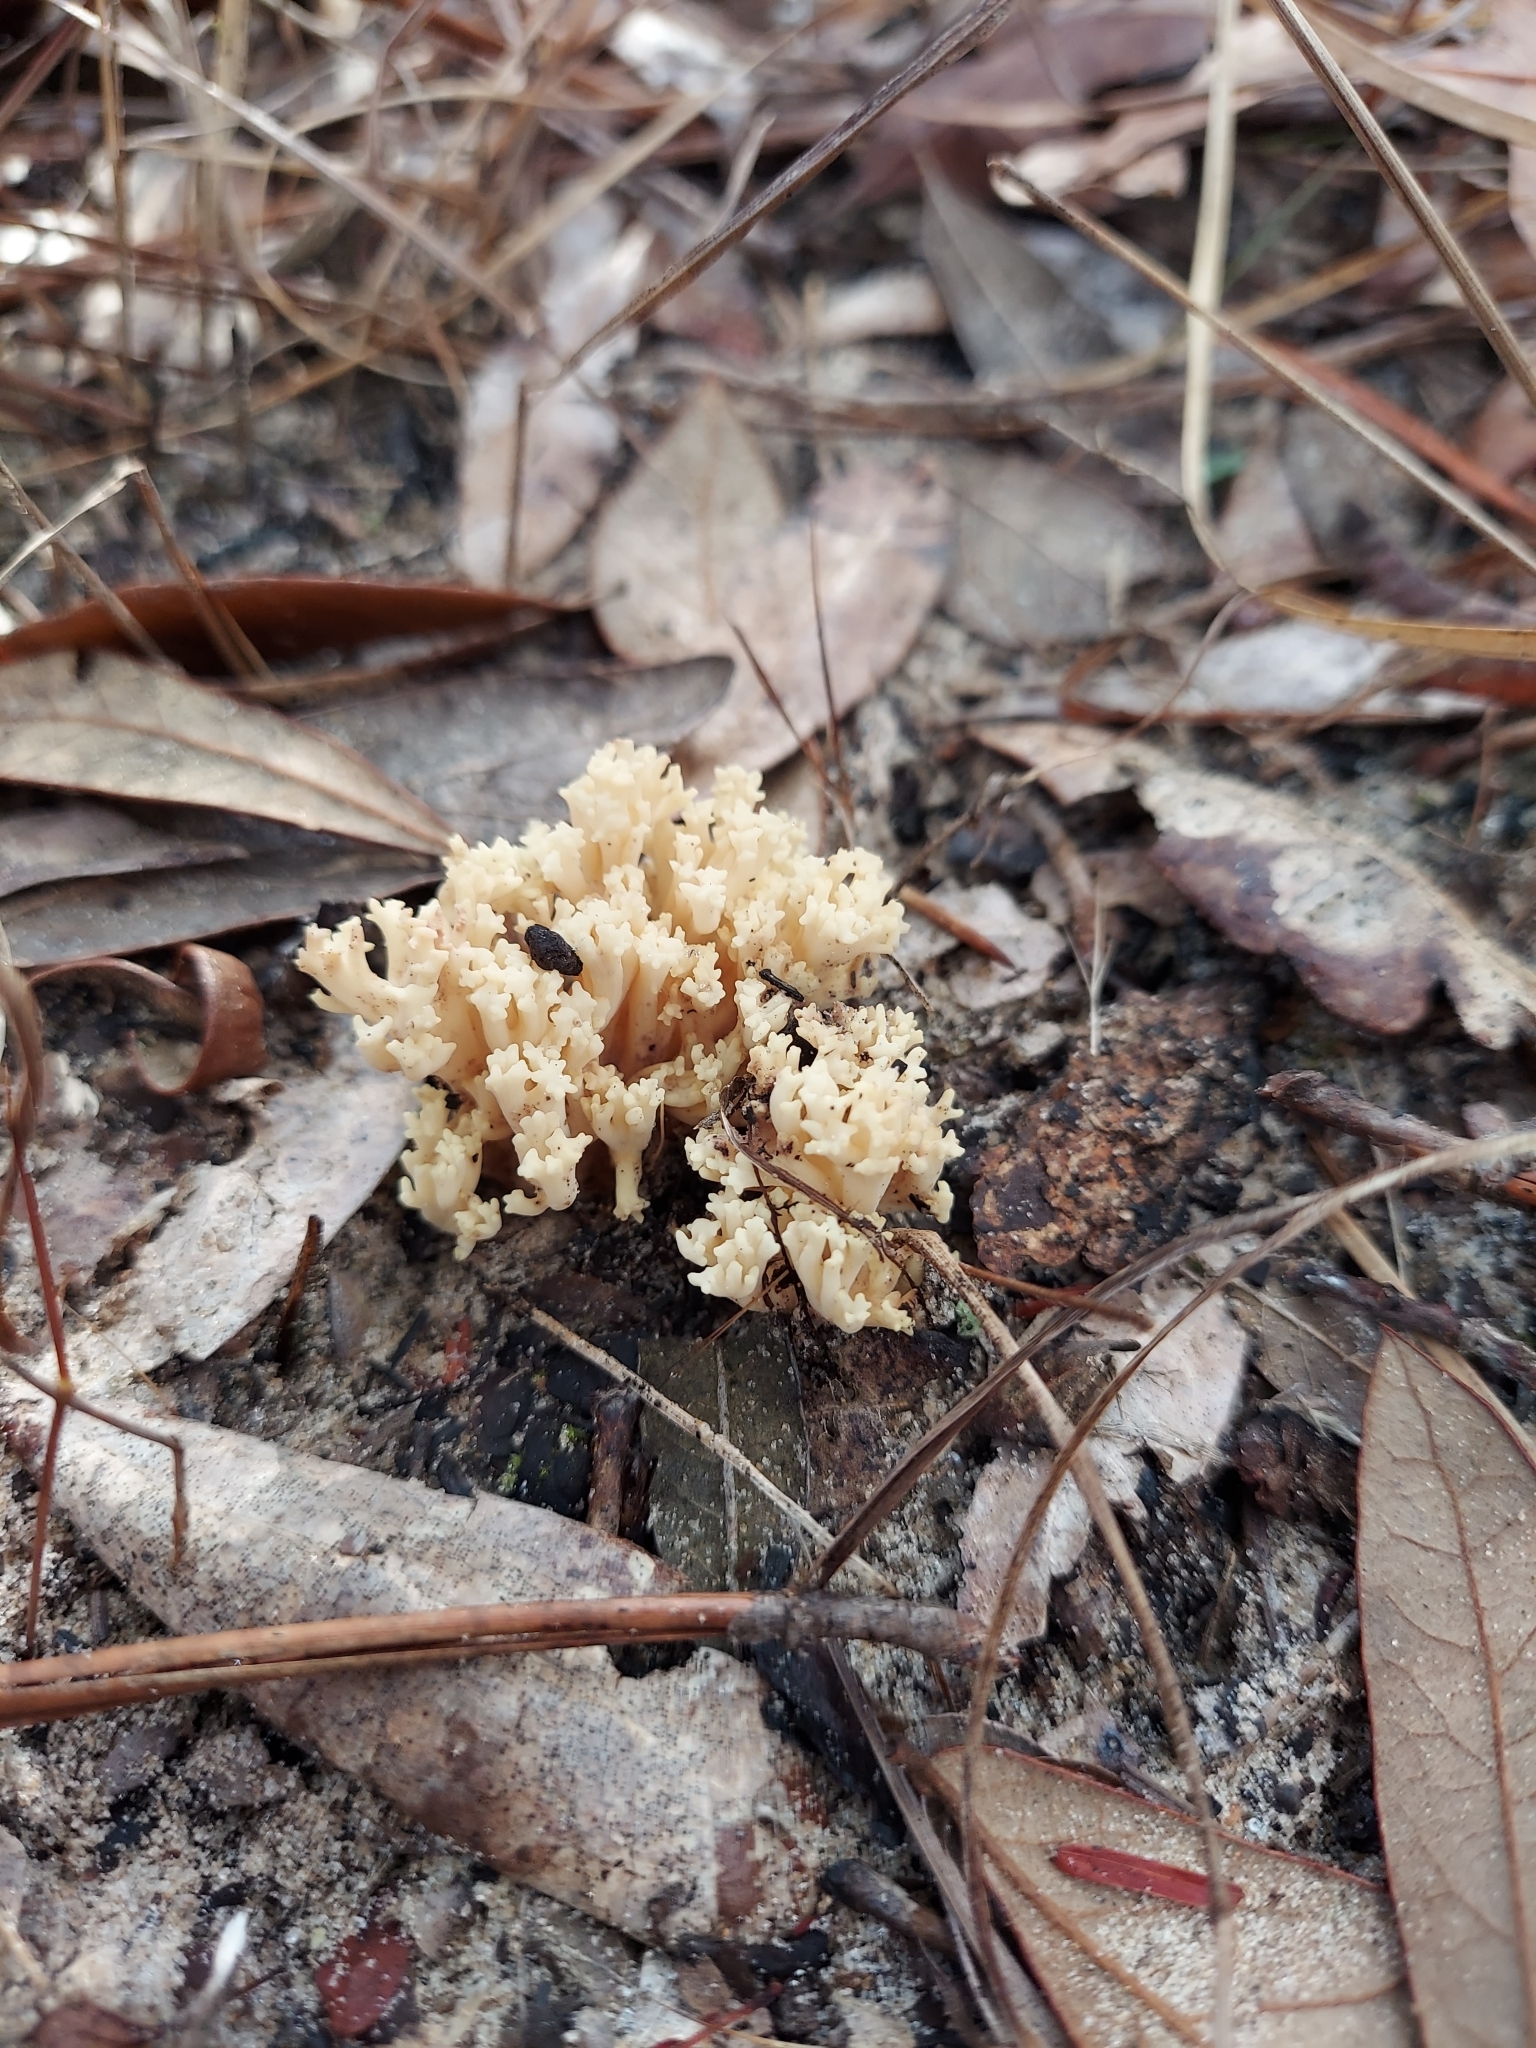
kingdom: Fungi
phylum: Basidiomycota
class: Agaricomycetes
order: Cantharellales
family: Hydnaceae
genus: Clavulina
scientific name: Clavulina coralloides
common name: Crested coral
